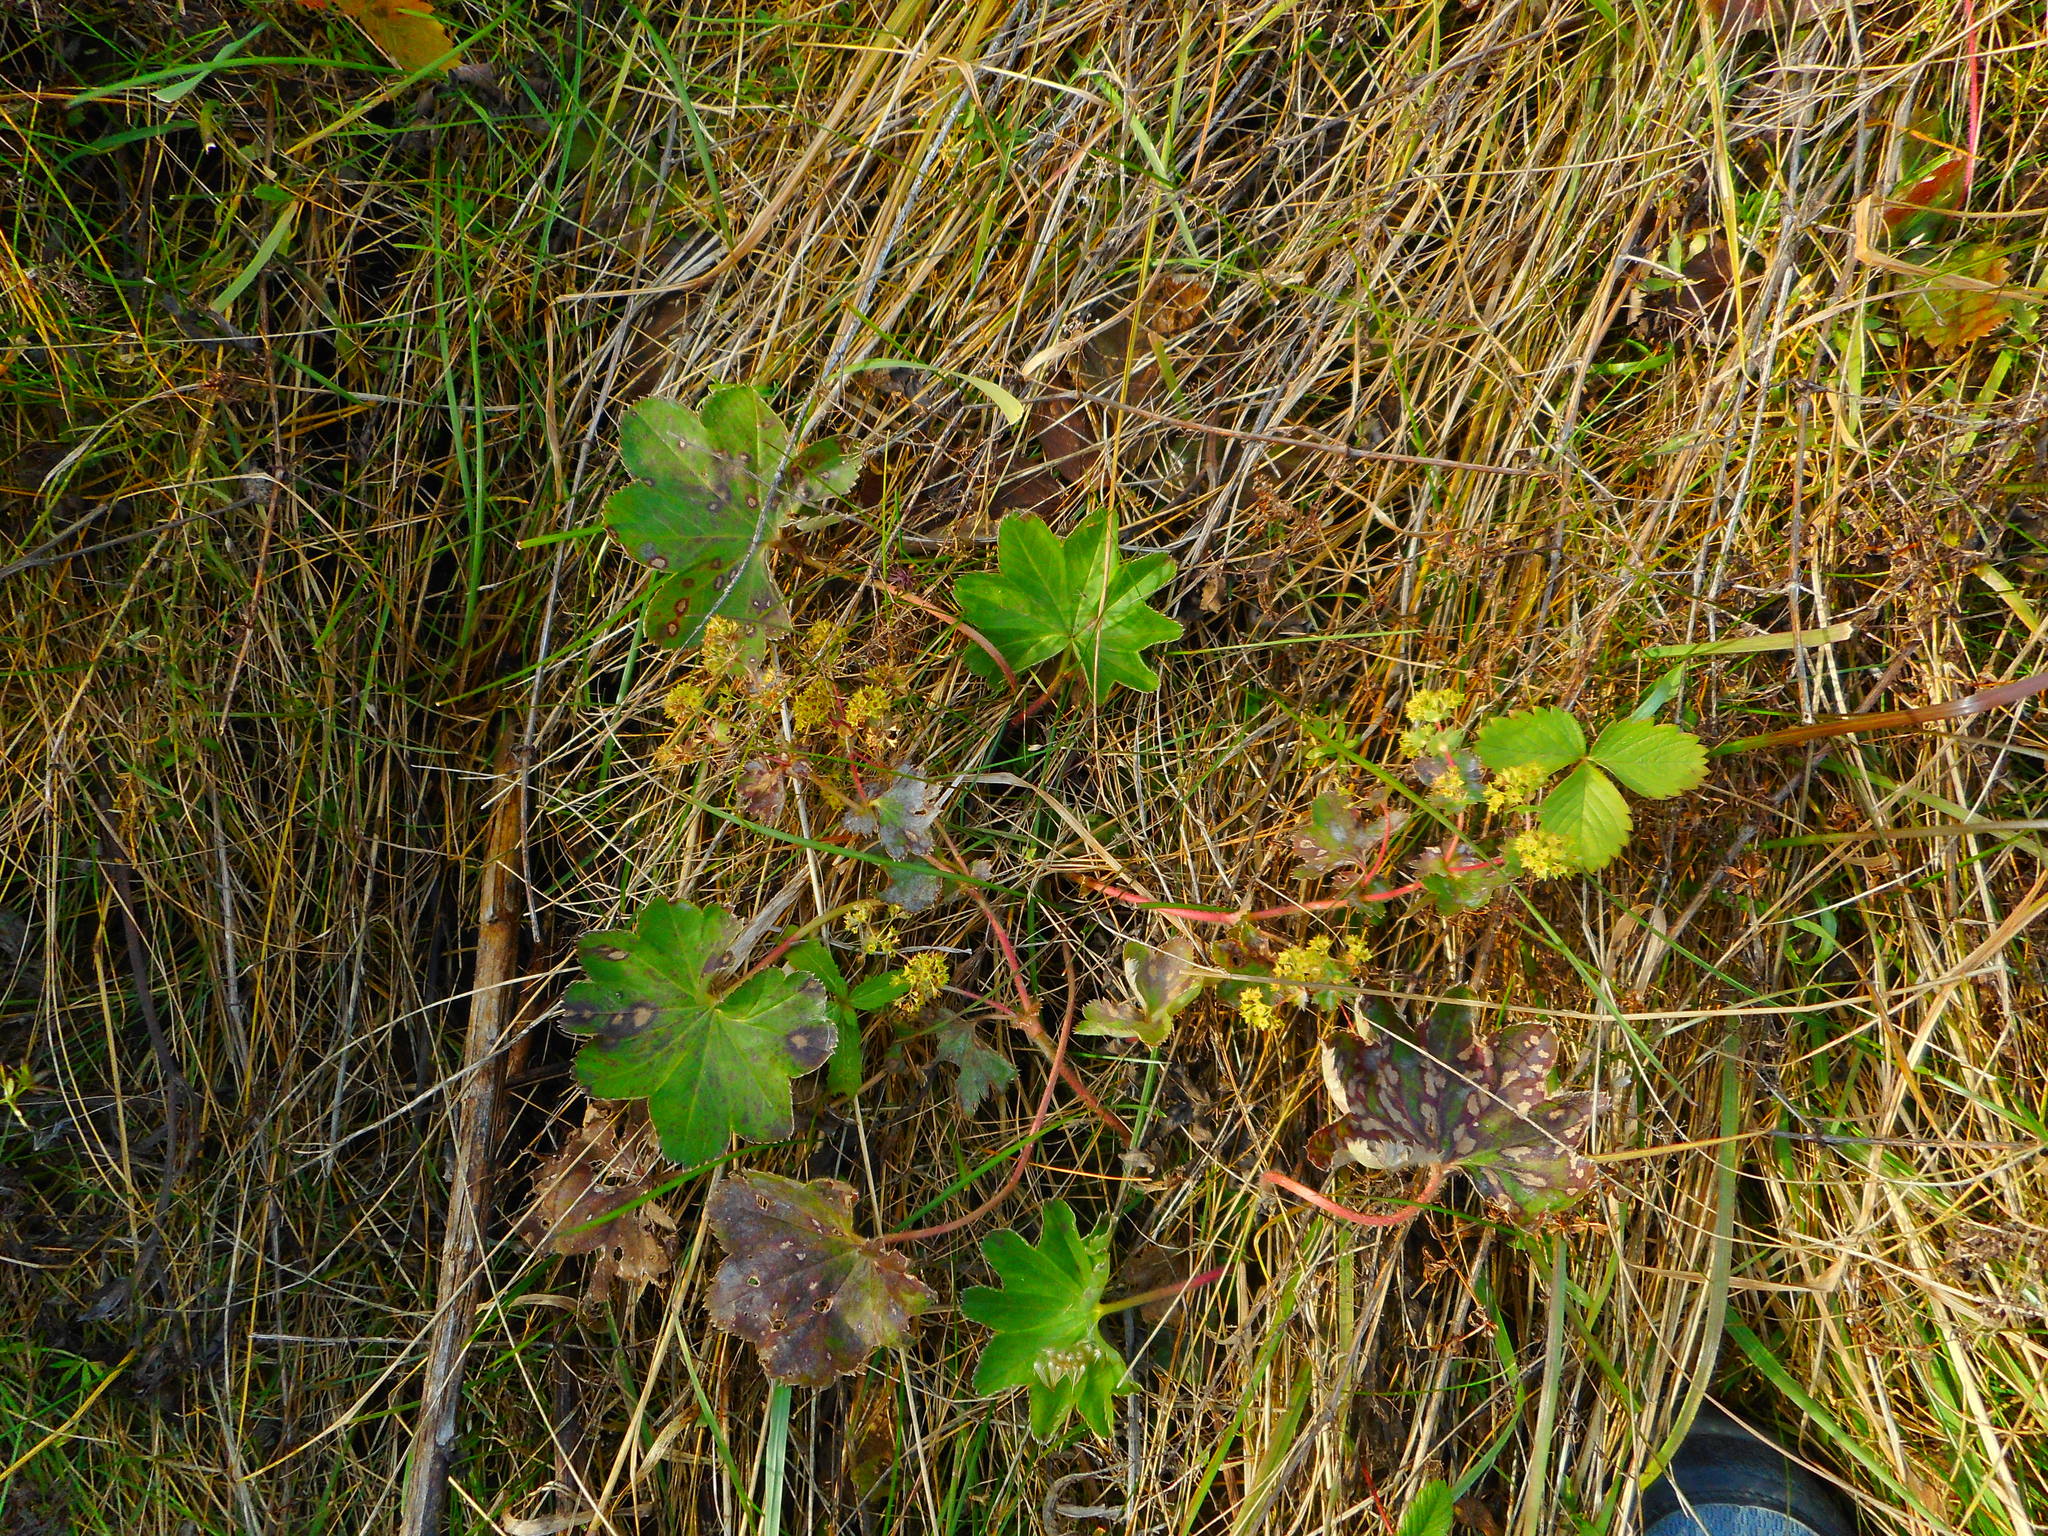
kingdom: Plantae
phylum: Tracheophyta
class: Magnoliopsida
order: Rosales
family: Rosaceae
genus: Alchemilla
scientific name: Alchemilla baltica
